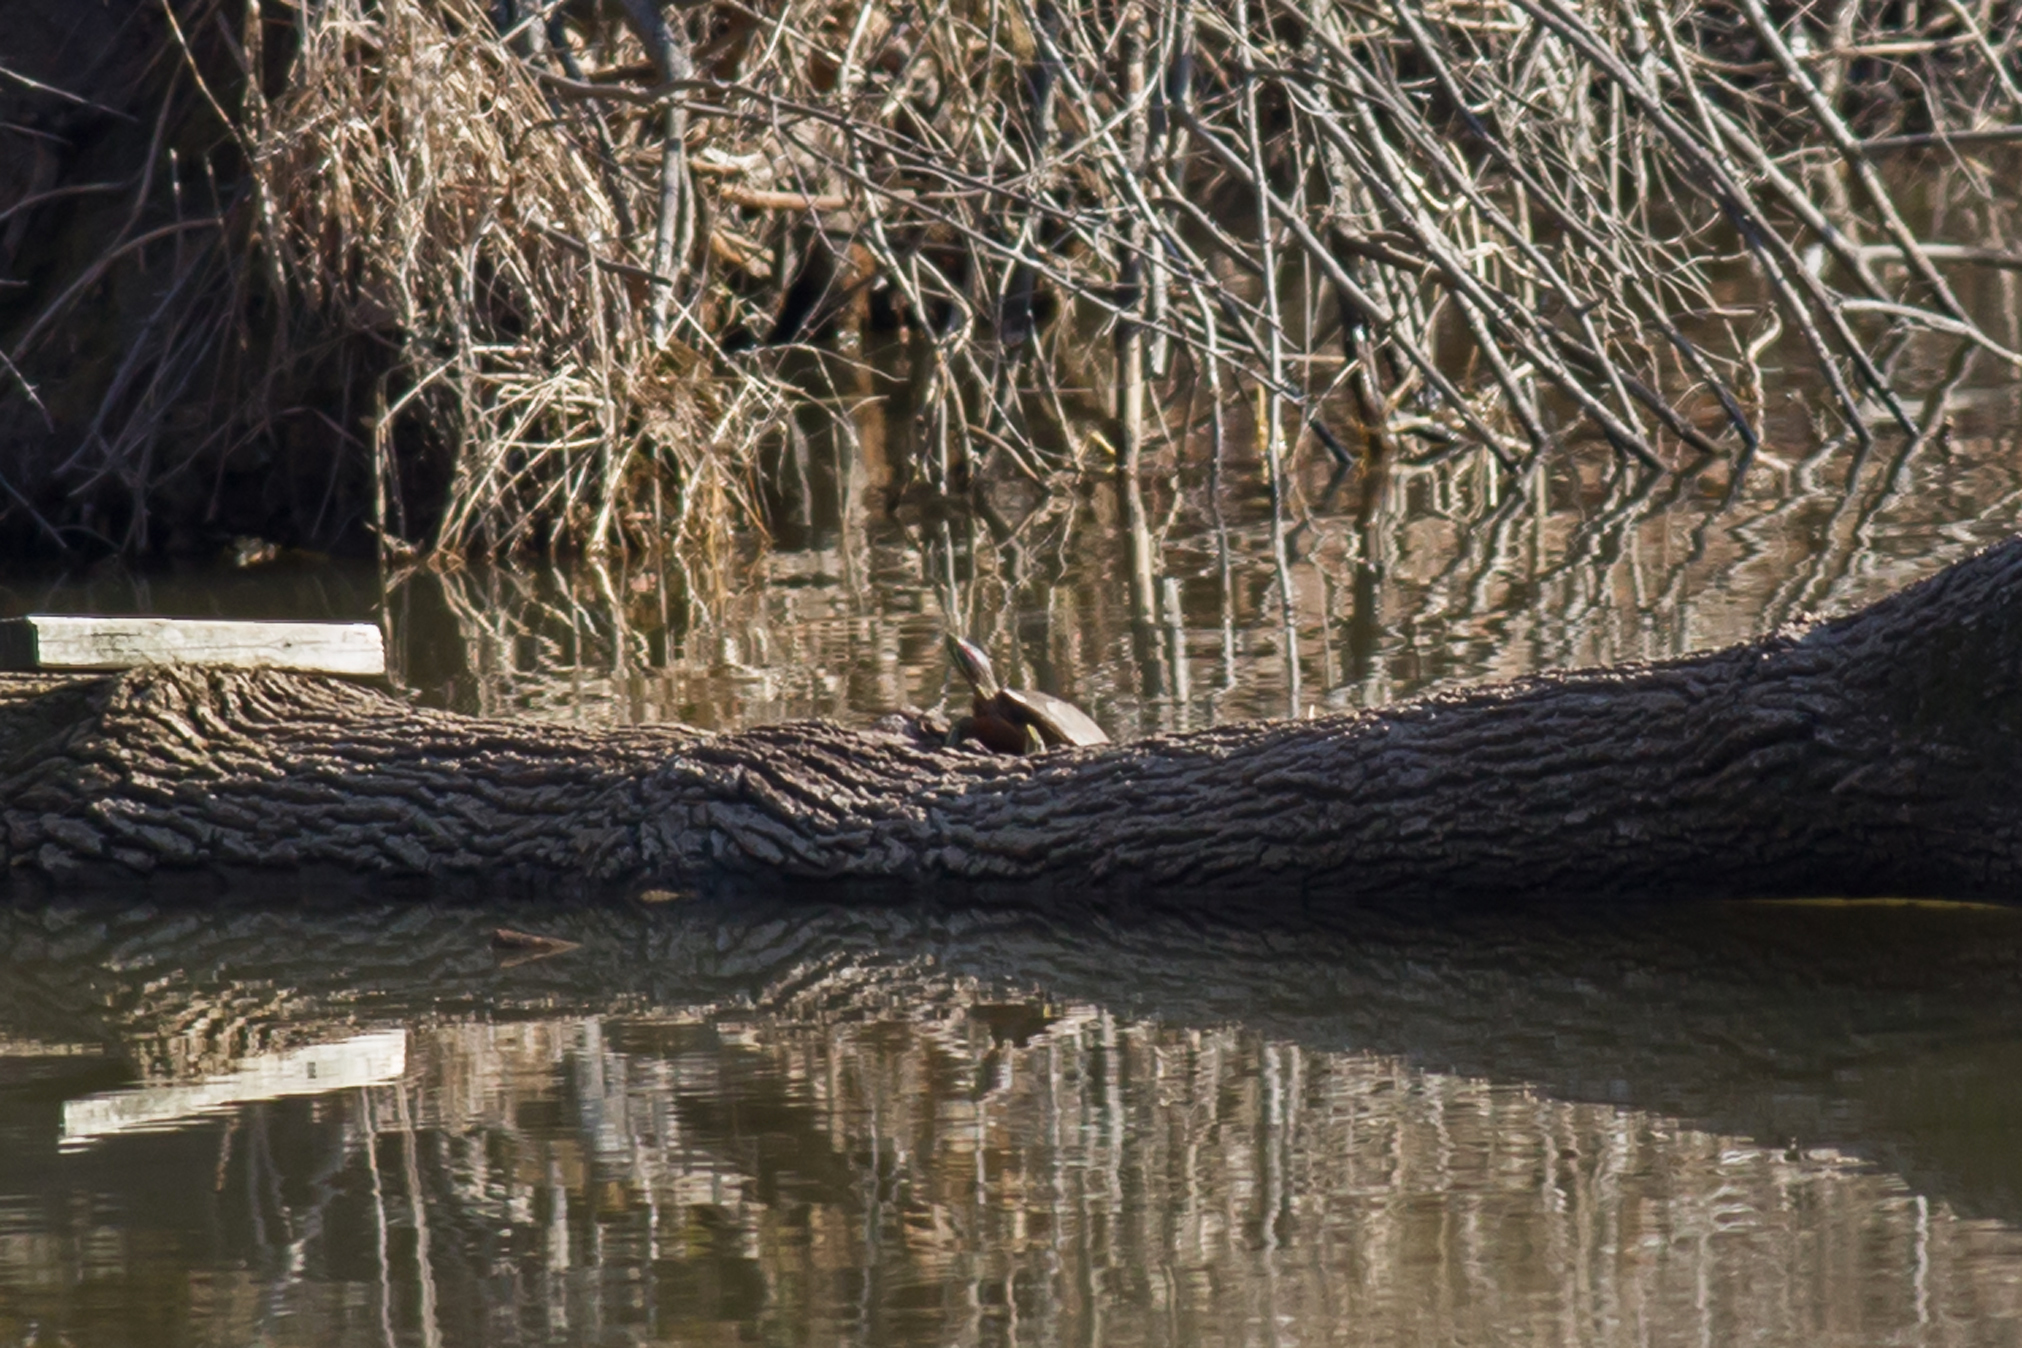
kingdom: Animalia
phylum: Chordata
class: Testudines
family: Emydidae
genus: Trachemys
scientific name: Trachemys scripta
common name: Slider
